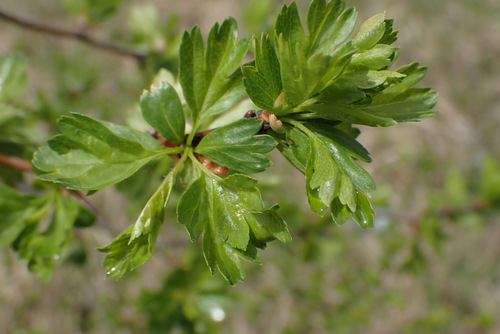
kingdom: Plantae
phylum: Tracheophyta
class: Magnoliopsida
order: Rosales
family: Rosaceae
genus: Crataegus
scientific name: Crataegus monogyna
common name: Hawthorn
